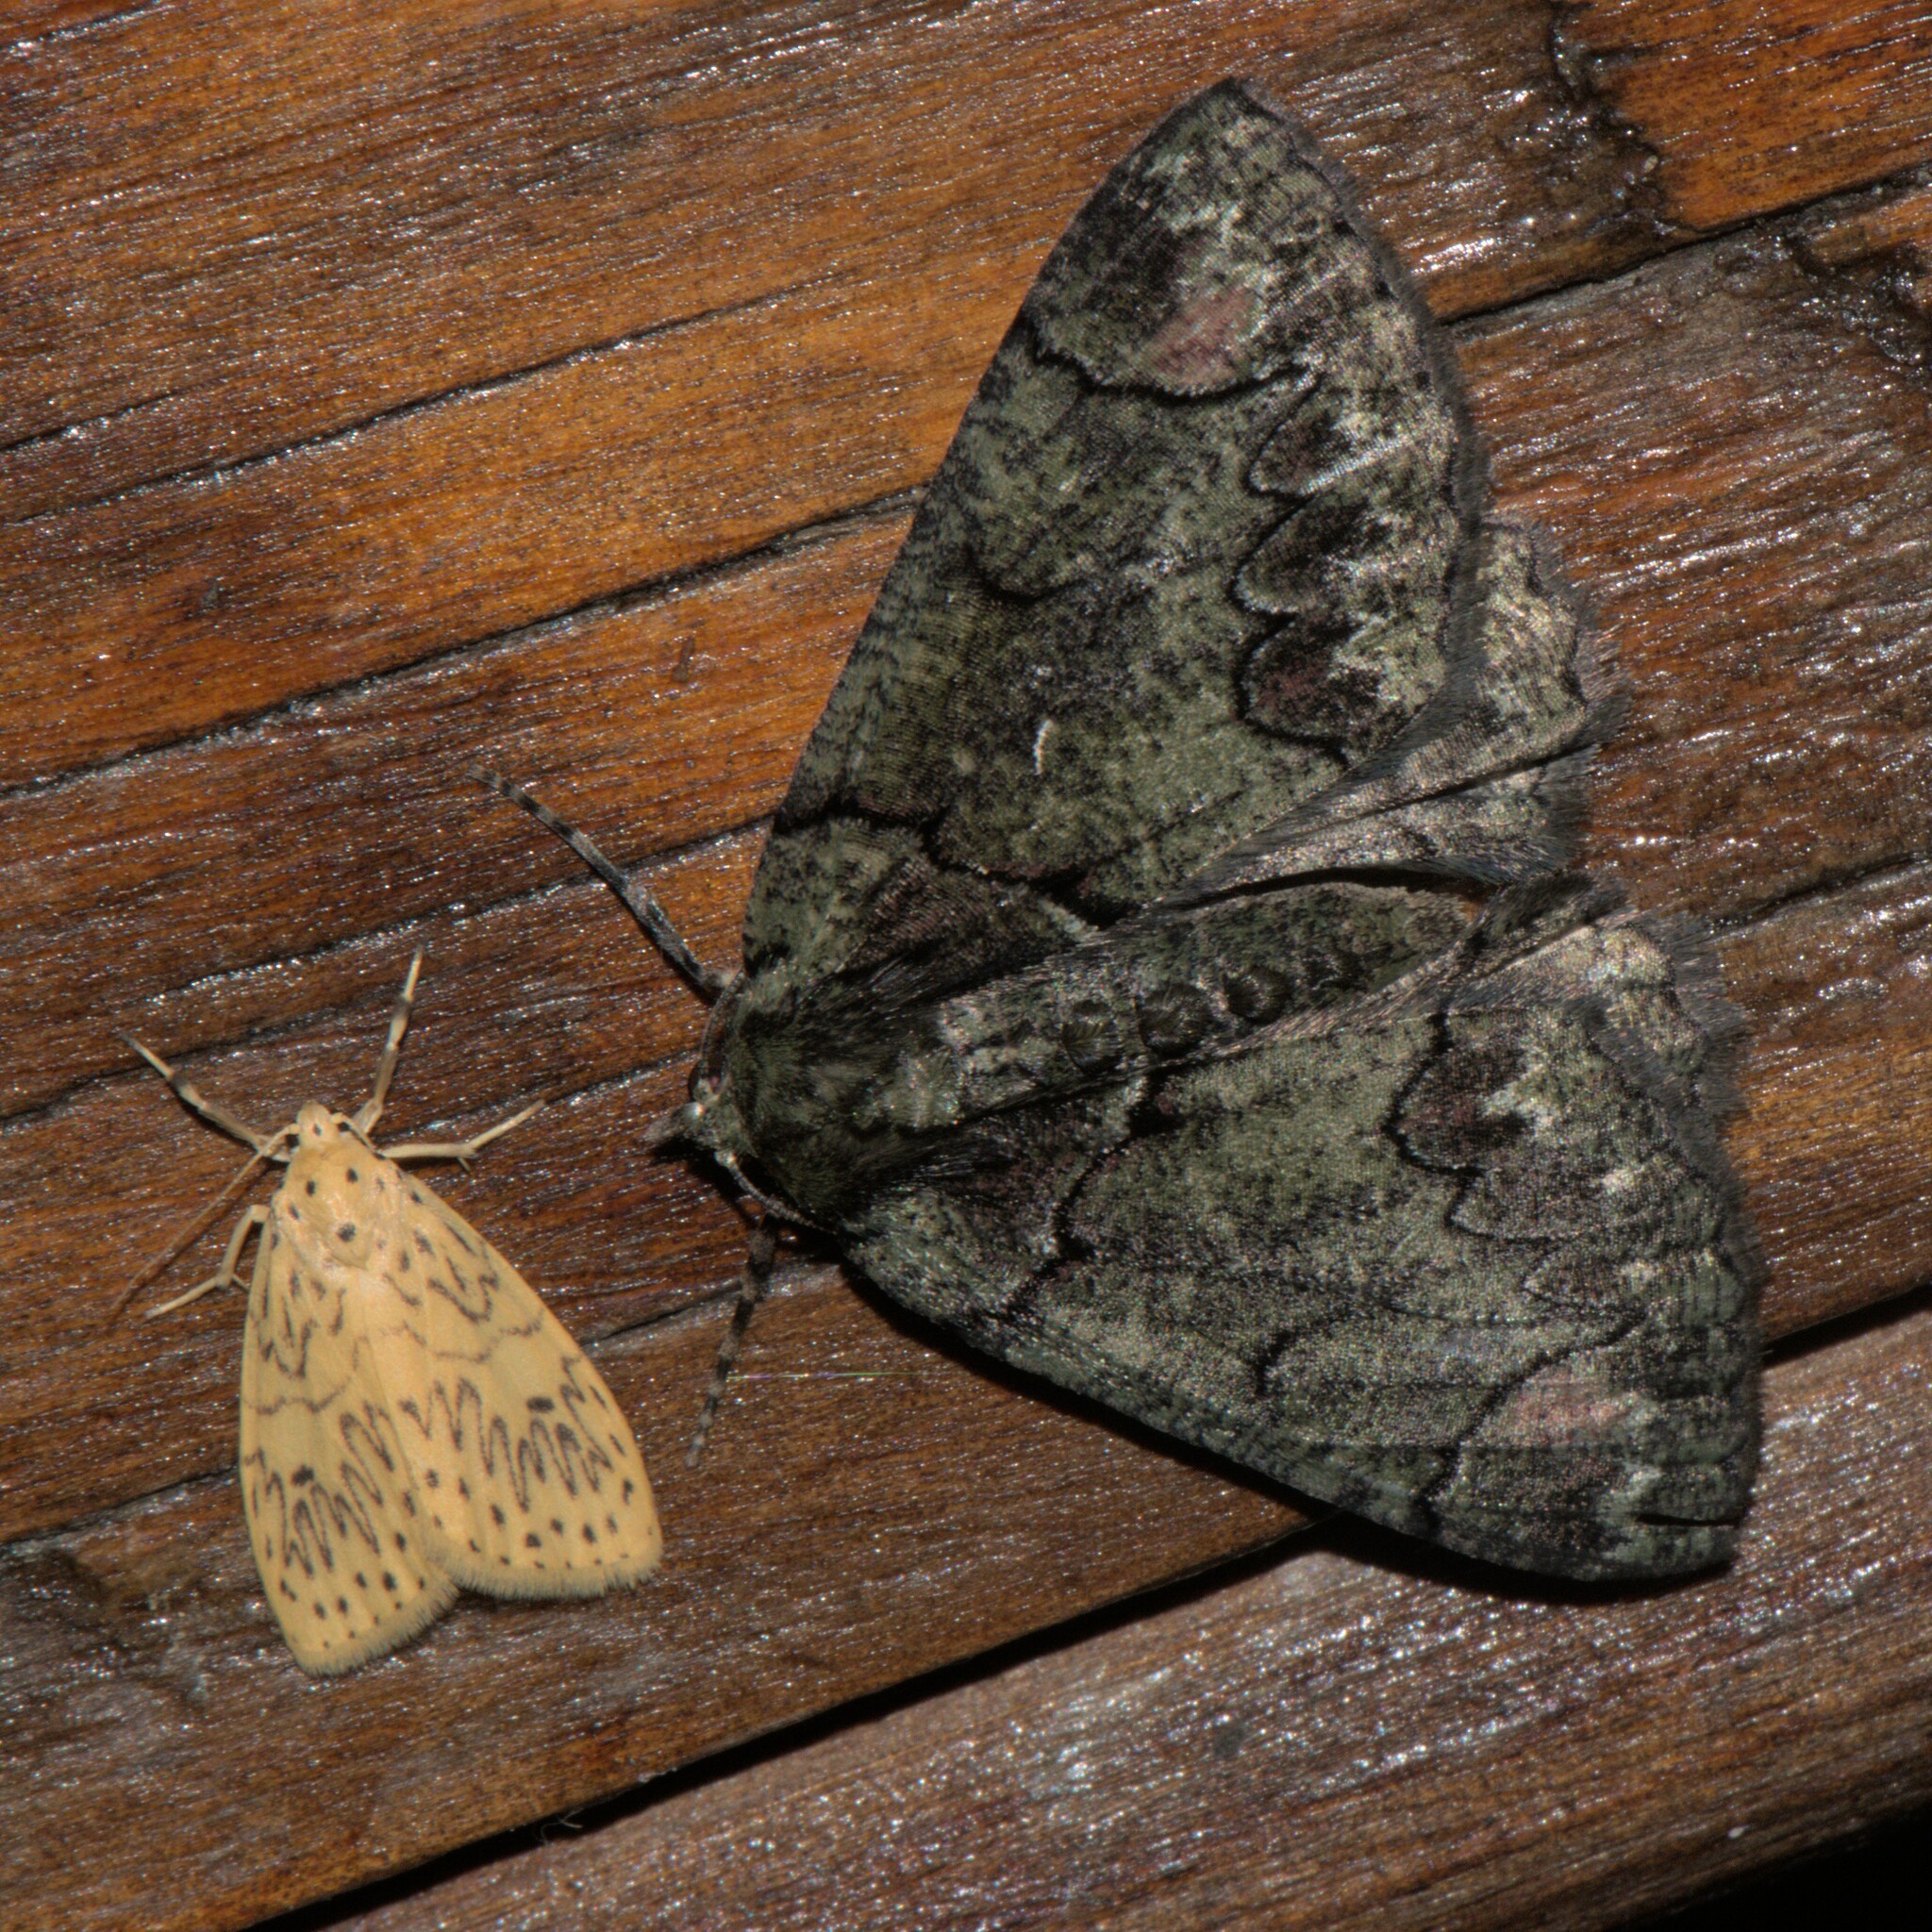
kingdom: Animalia
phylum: Arthropoda
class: Insecta
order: Lepidoptera
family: Erebidae
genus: Miltochrista
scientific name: Miltochrista undulosa
